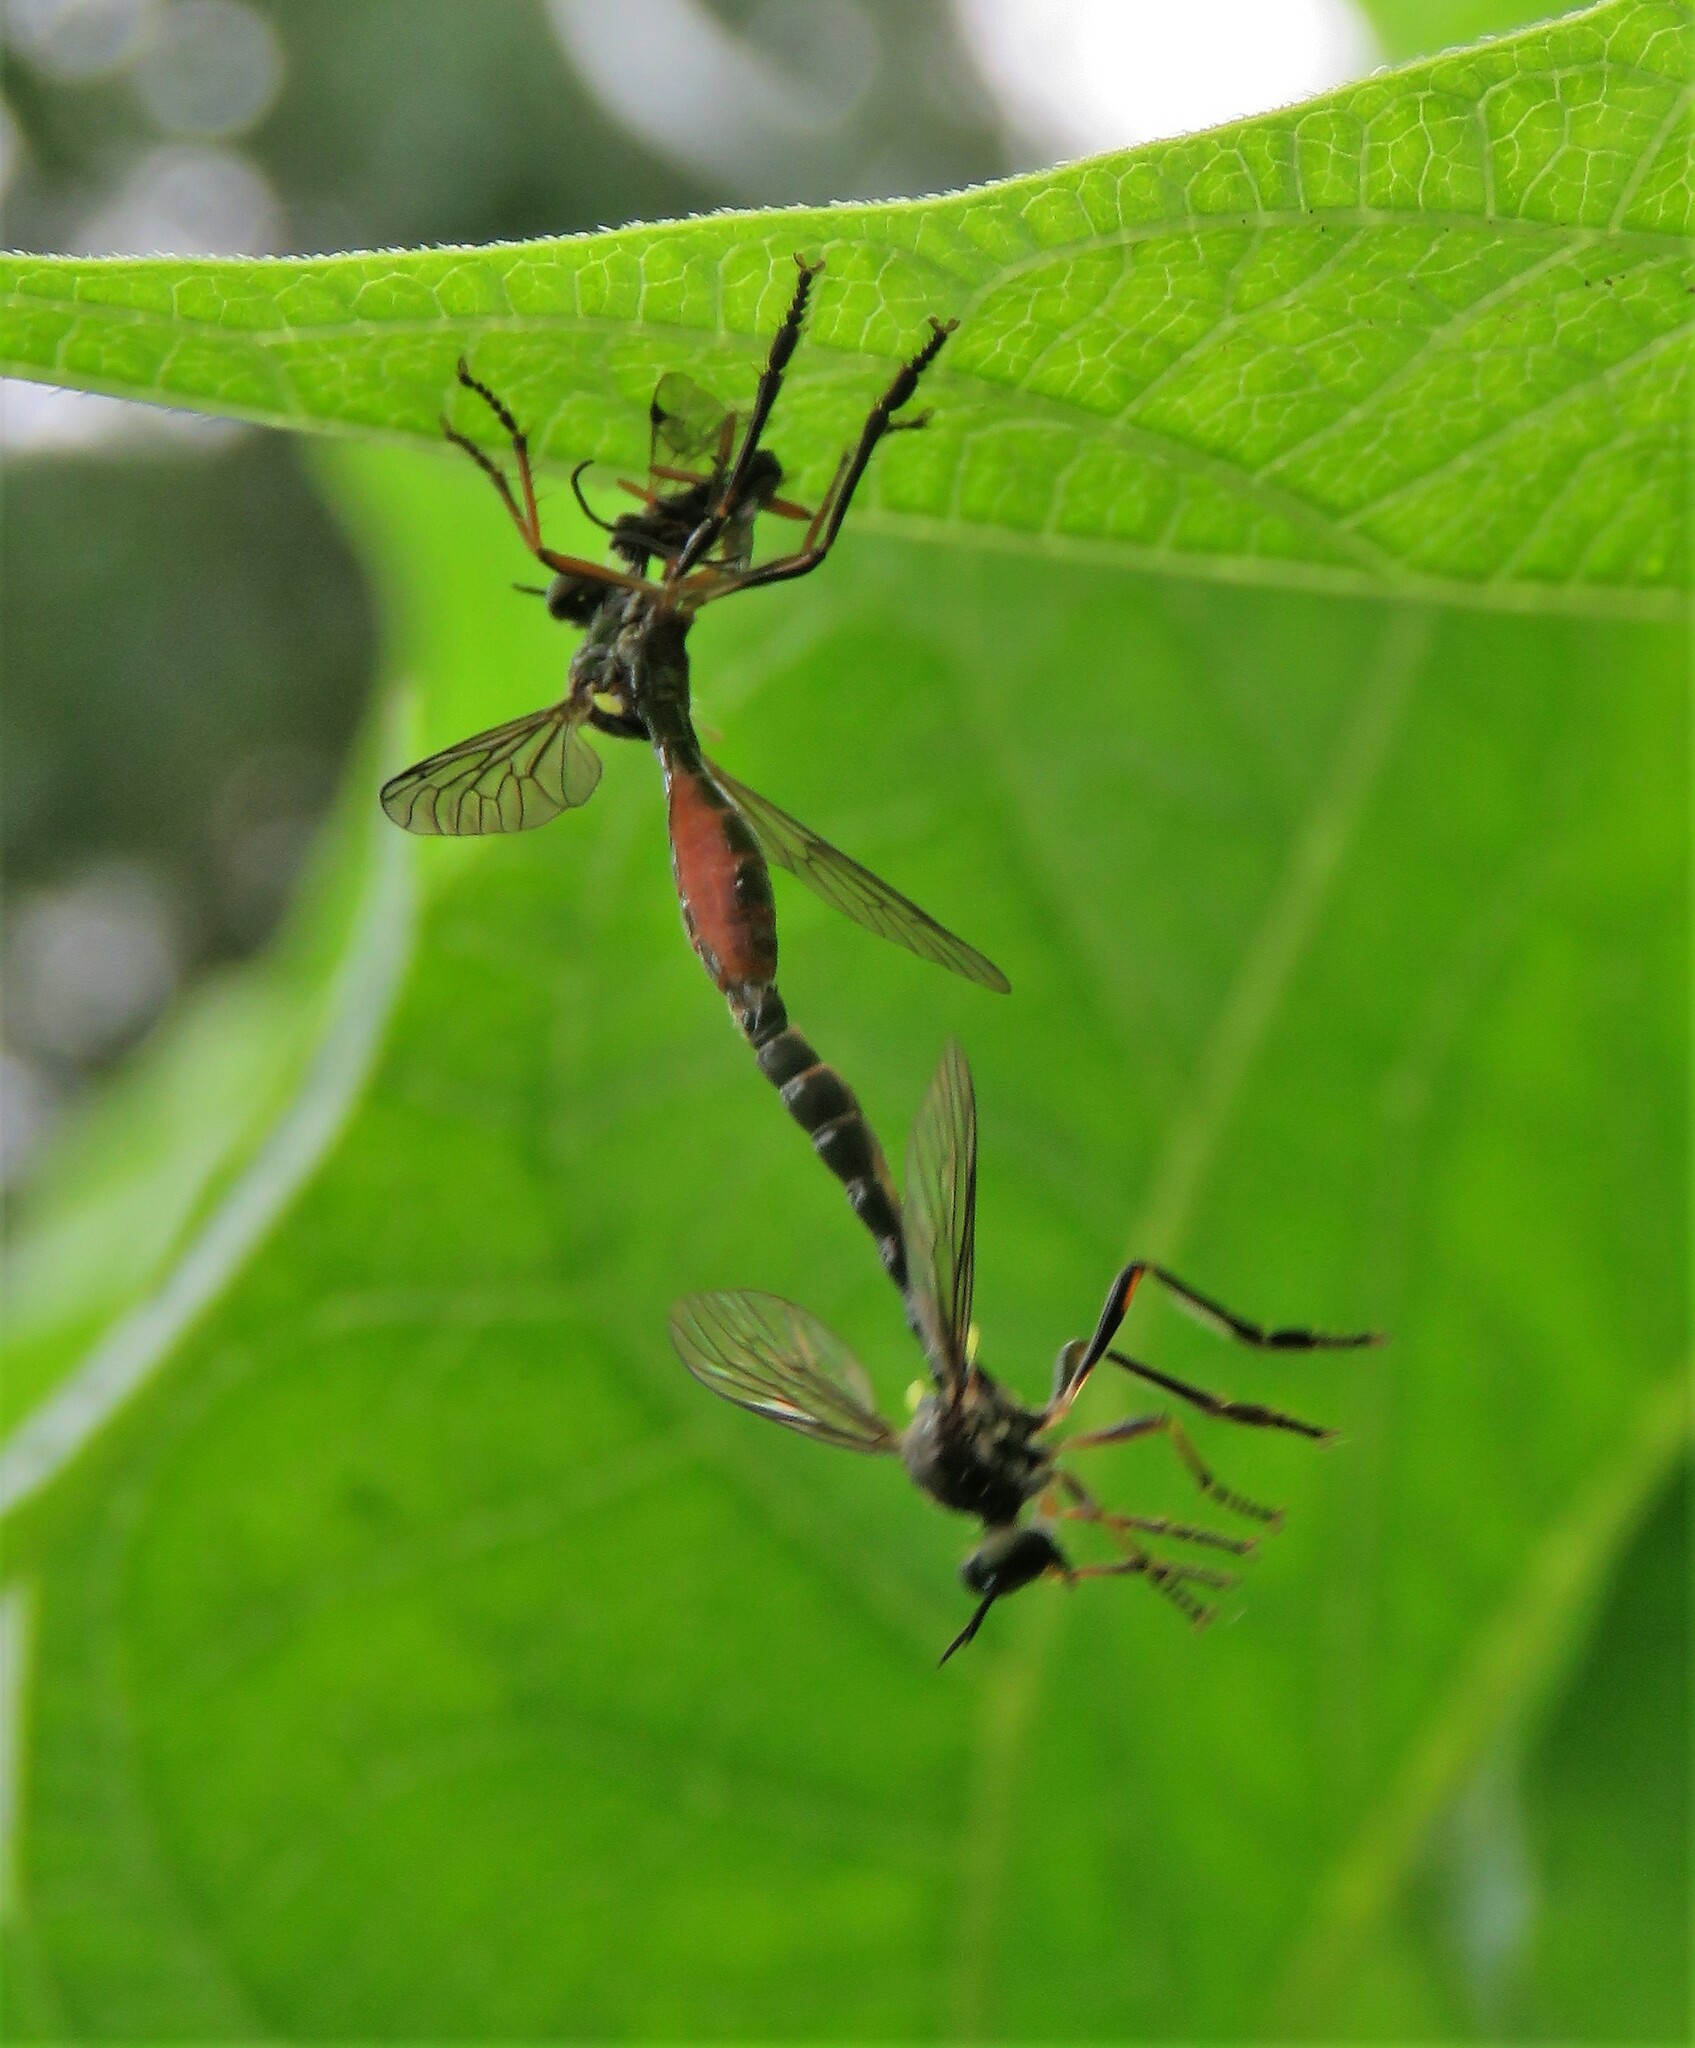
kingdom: Animalia
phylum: Arthropoda
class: Insecta
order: Diptera
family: Asilidae
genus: Dioctria
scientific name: Dioctria hyalipennis
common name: Stripe-legged robberfly
